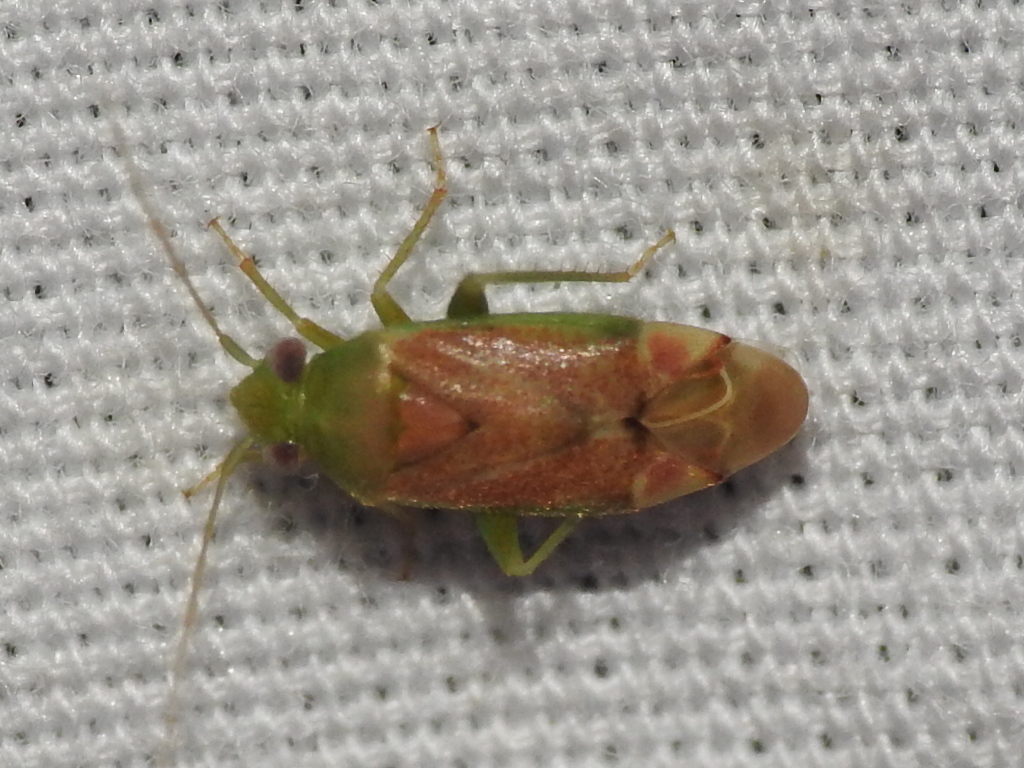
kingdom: Animalia
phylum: Arthropoda
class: Insecta
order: Hemiptera
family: Miridae
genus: Dichrooscytus
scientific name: Dichrooscytus
